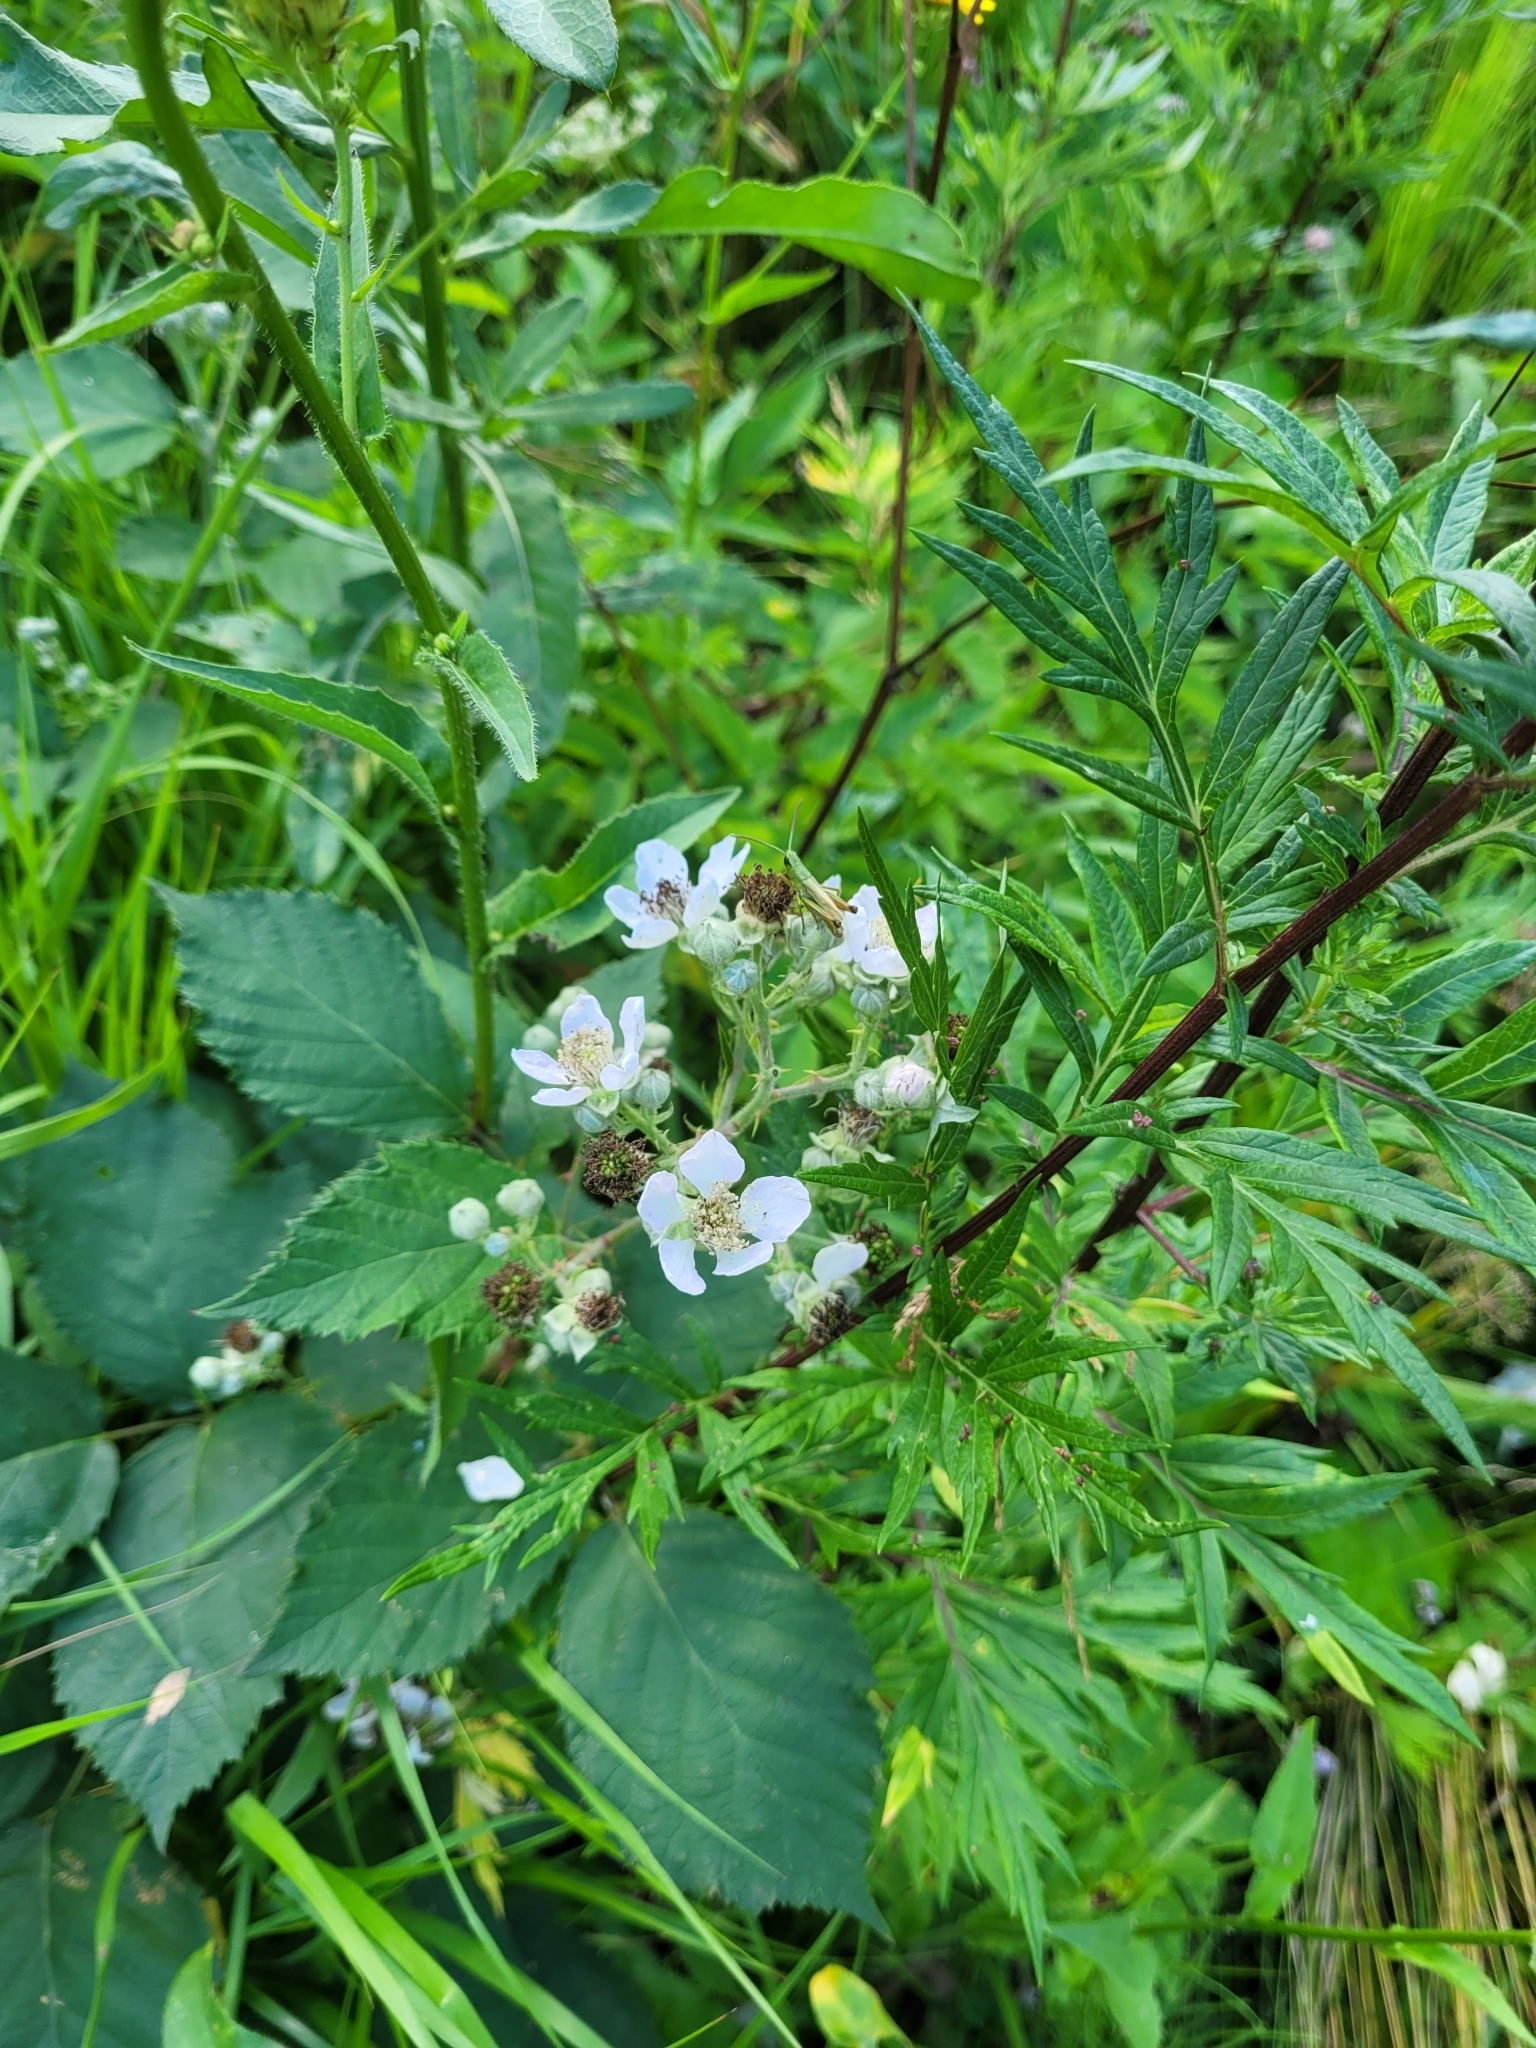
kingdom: Plantae
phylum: Tracheophyta
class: Magnoliopsida
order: Rosales
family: Rosaceae
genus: Rubus
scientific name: Rubus procerus
